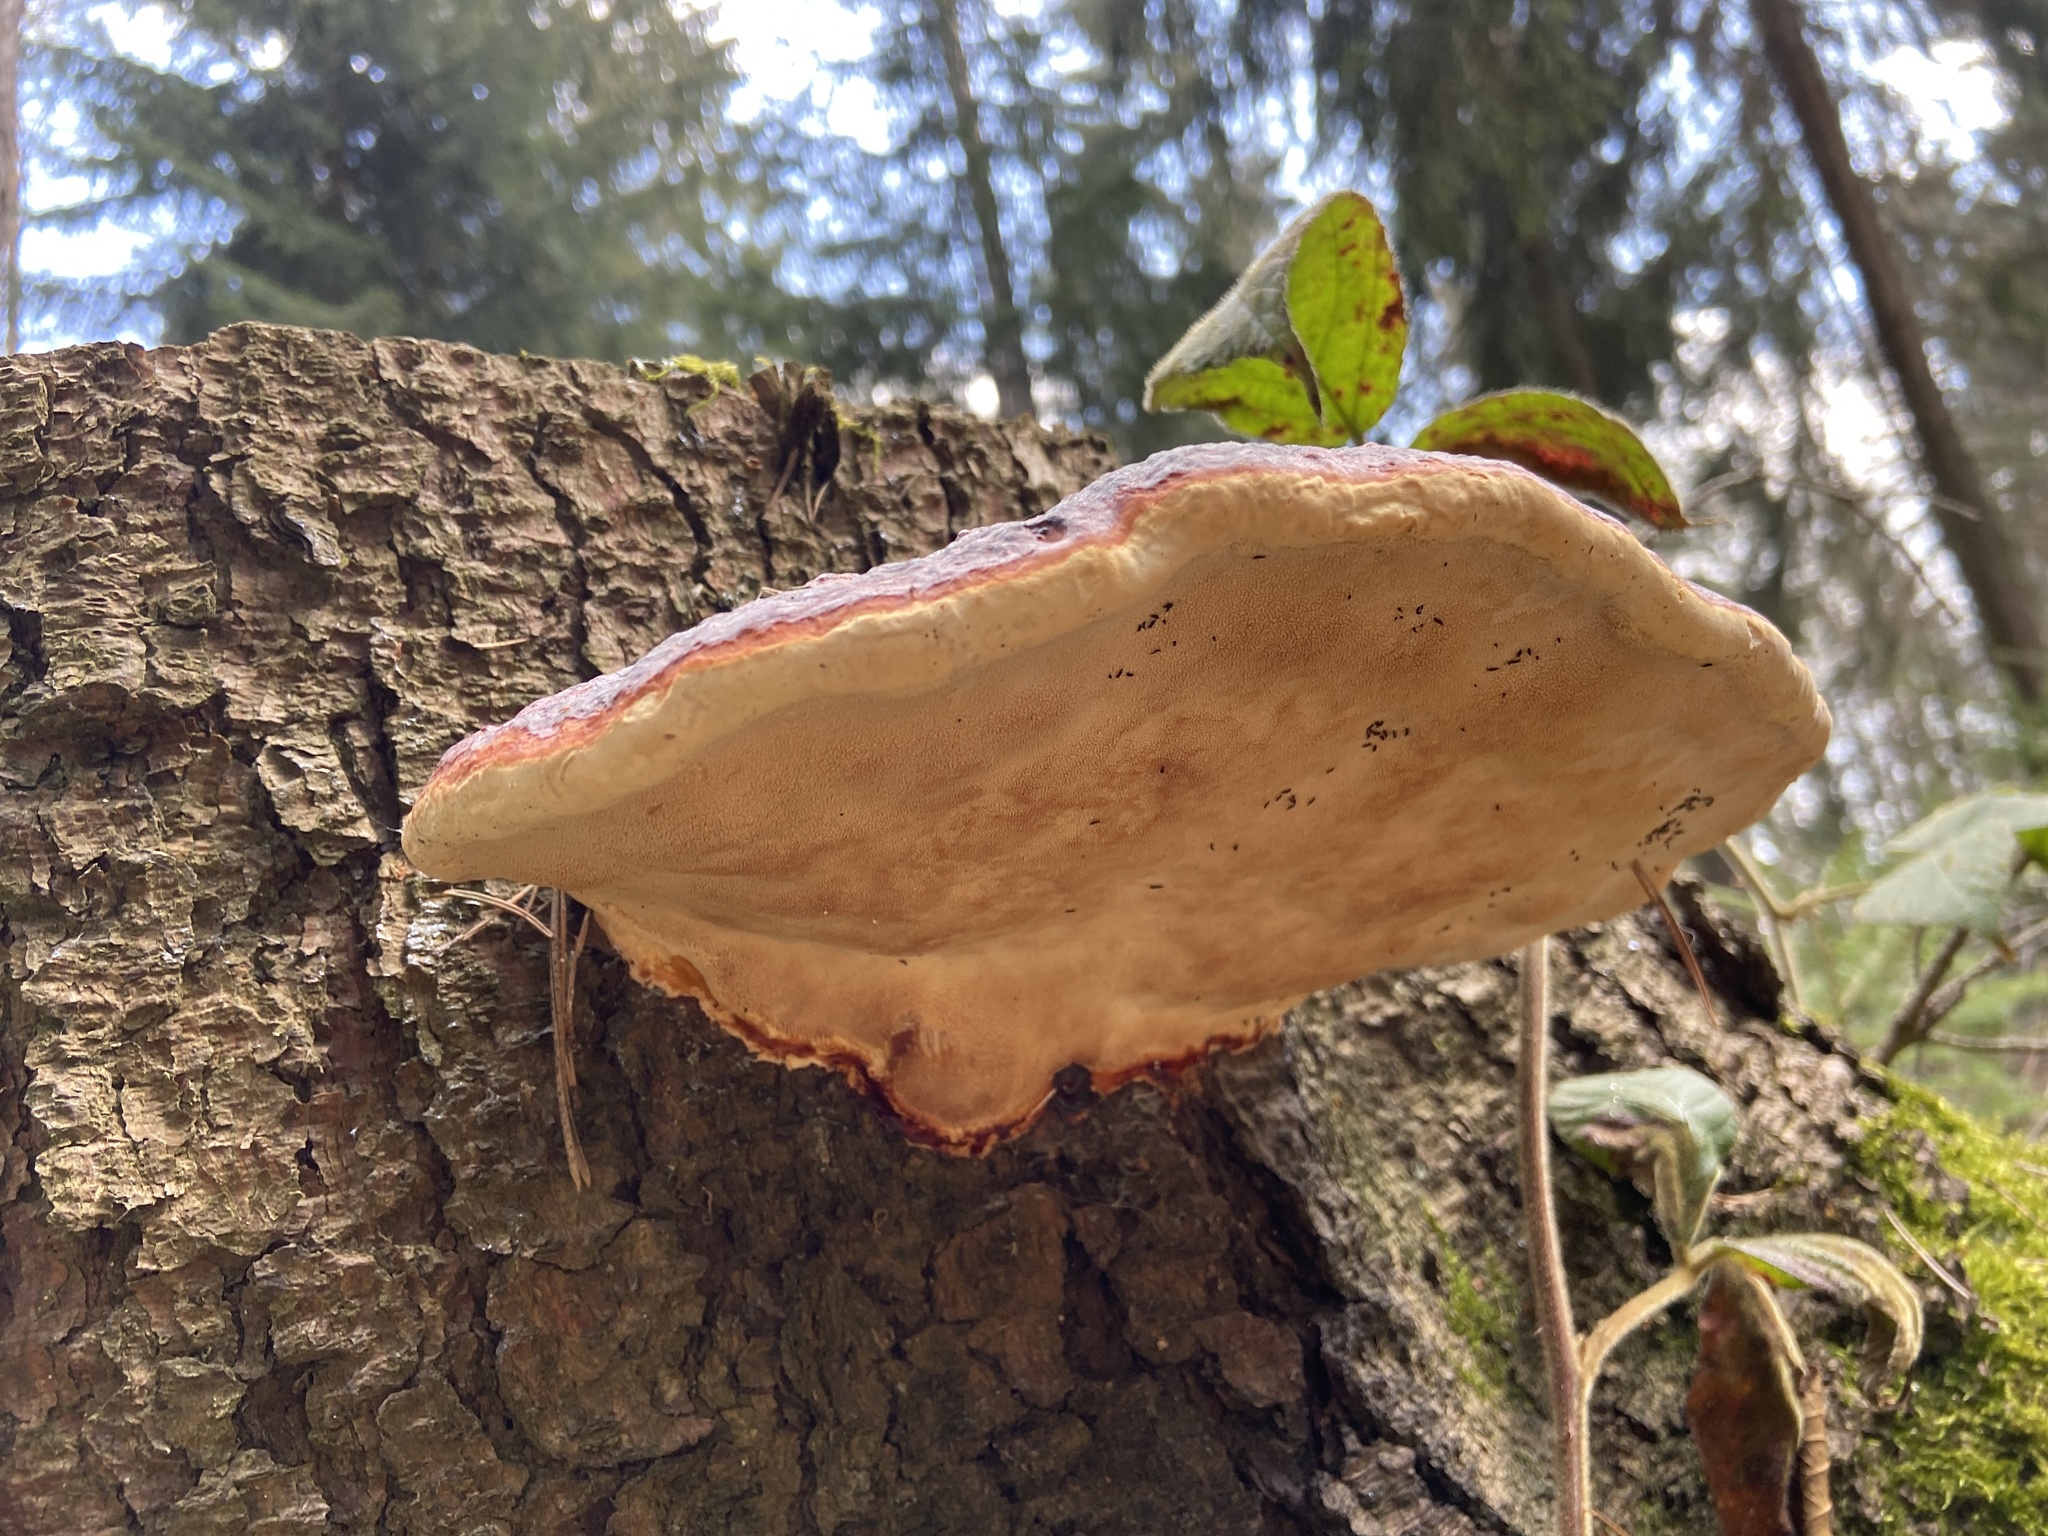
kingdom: Fungi
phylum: Basidiomycota
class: Agaricomycetes
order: Polyporales
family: Fomitopsidaceae
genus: Fomitopsis
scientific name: Fomitopsis pinicola
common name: Red-belted bracket
